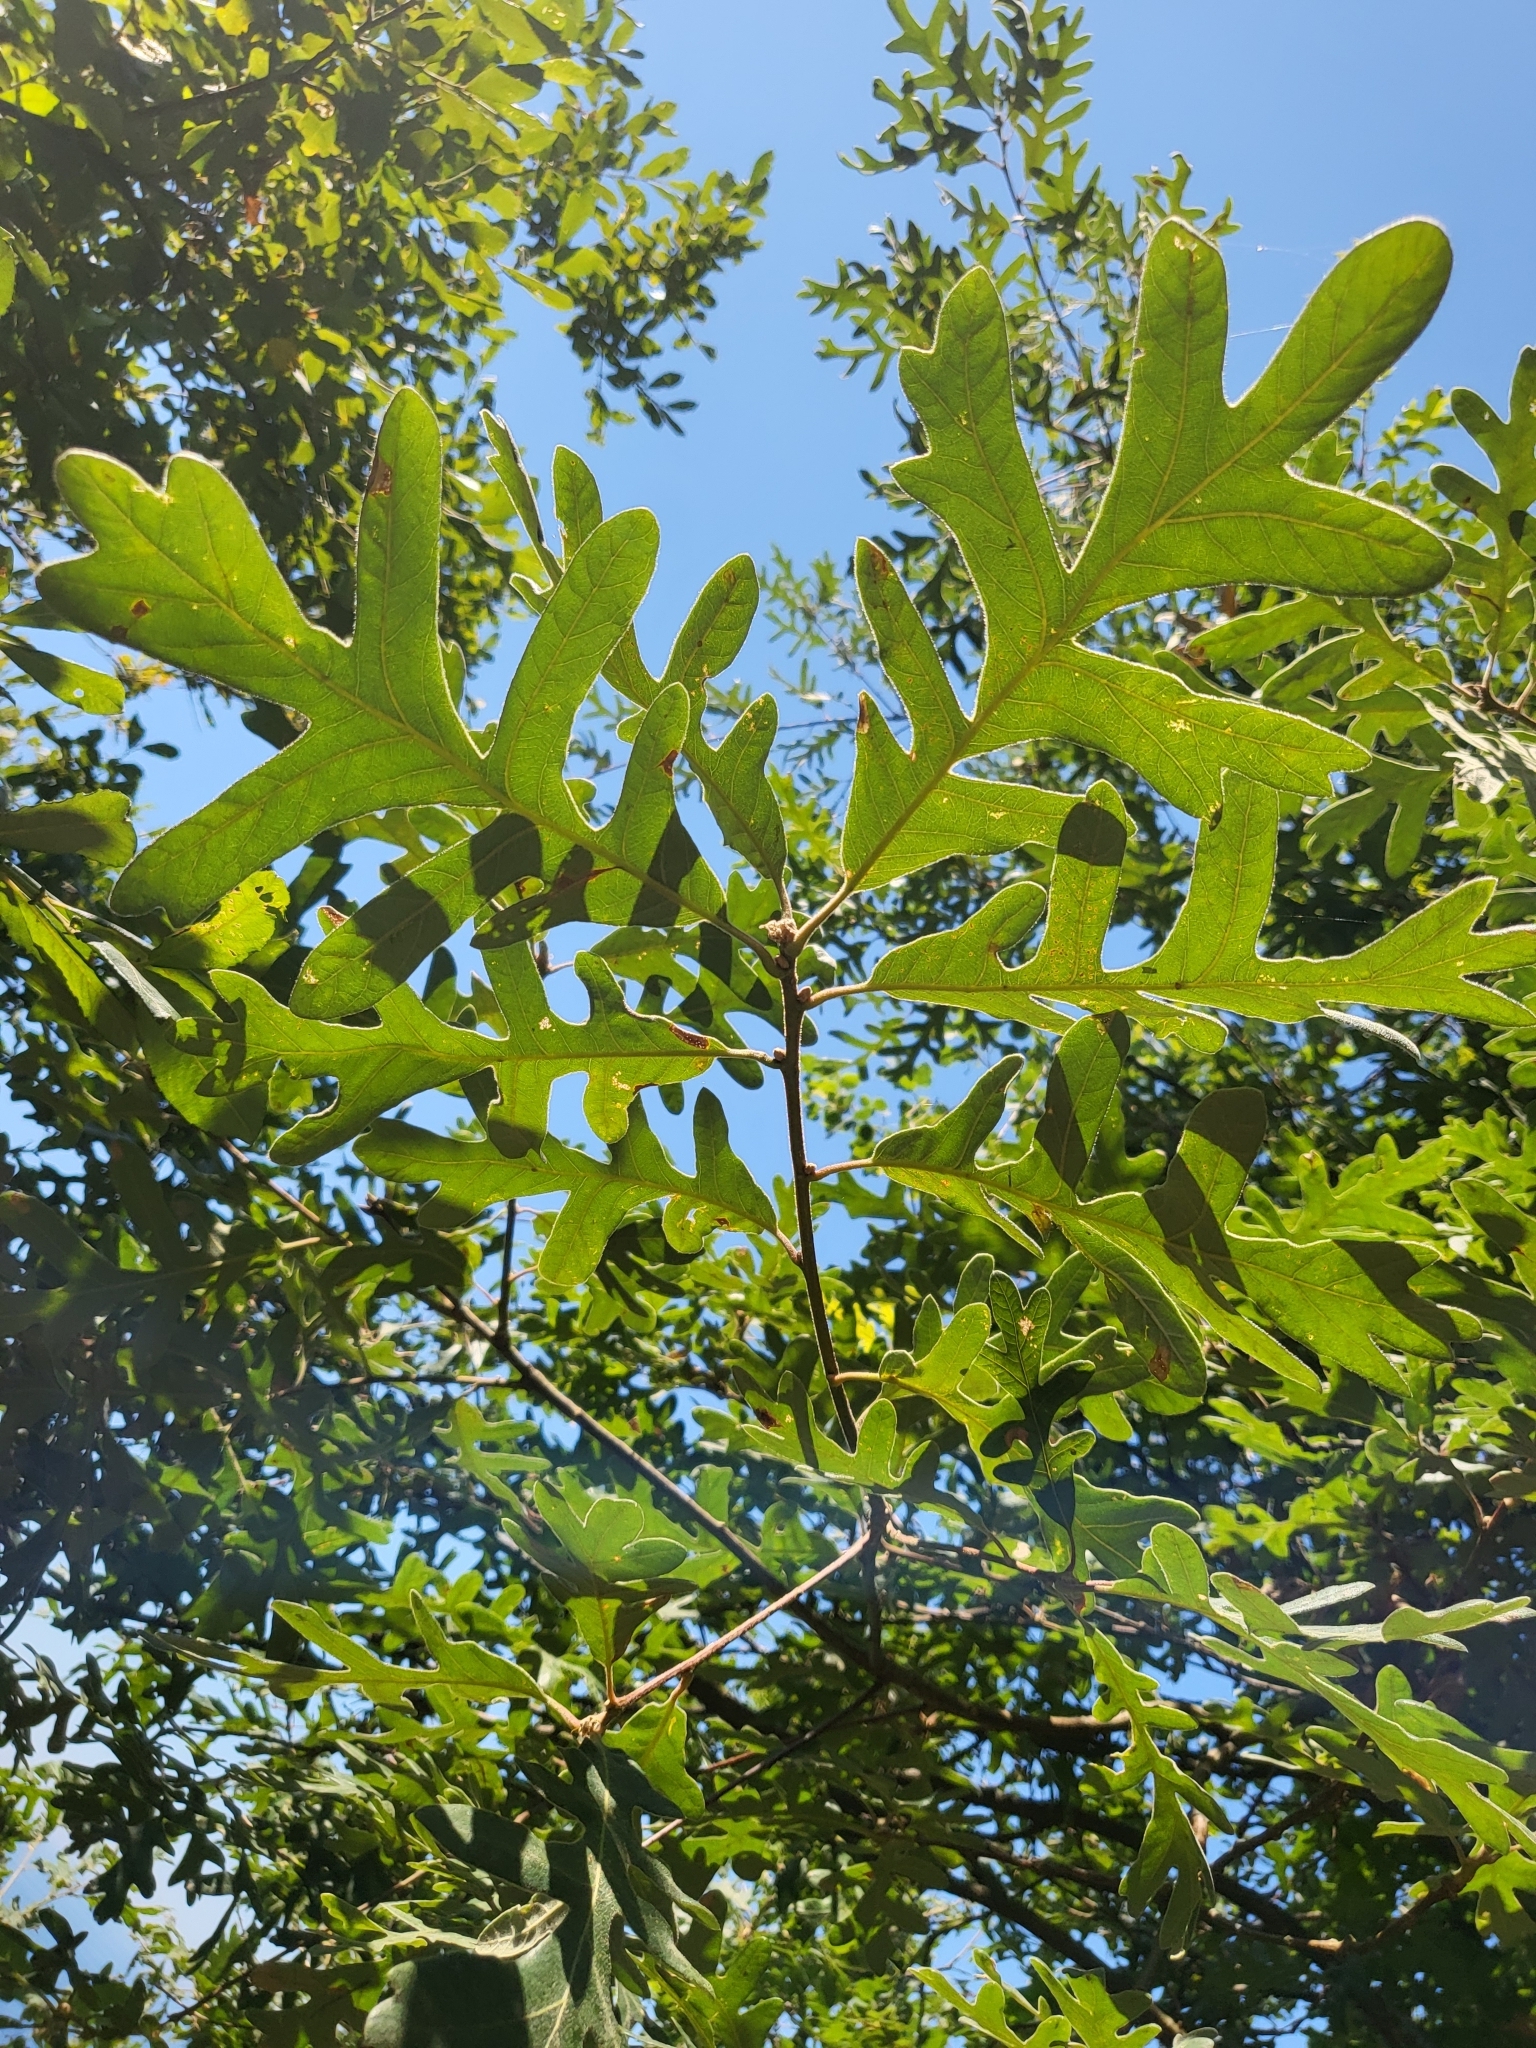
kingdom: Plantae
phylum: Tracheophyta
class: Magnoliopsida
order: Fagales
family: Fagaceae
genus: Quercus
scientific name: Quercus pyrenaica
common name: Pyrenean oak
